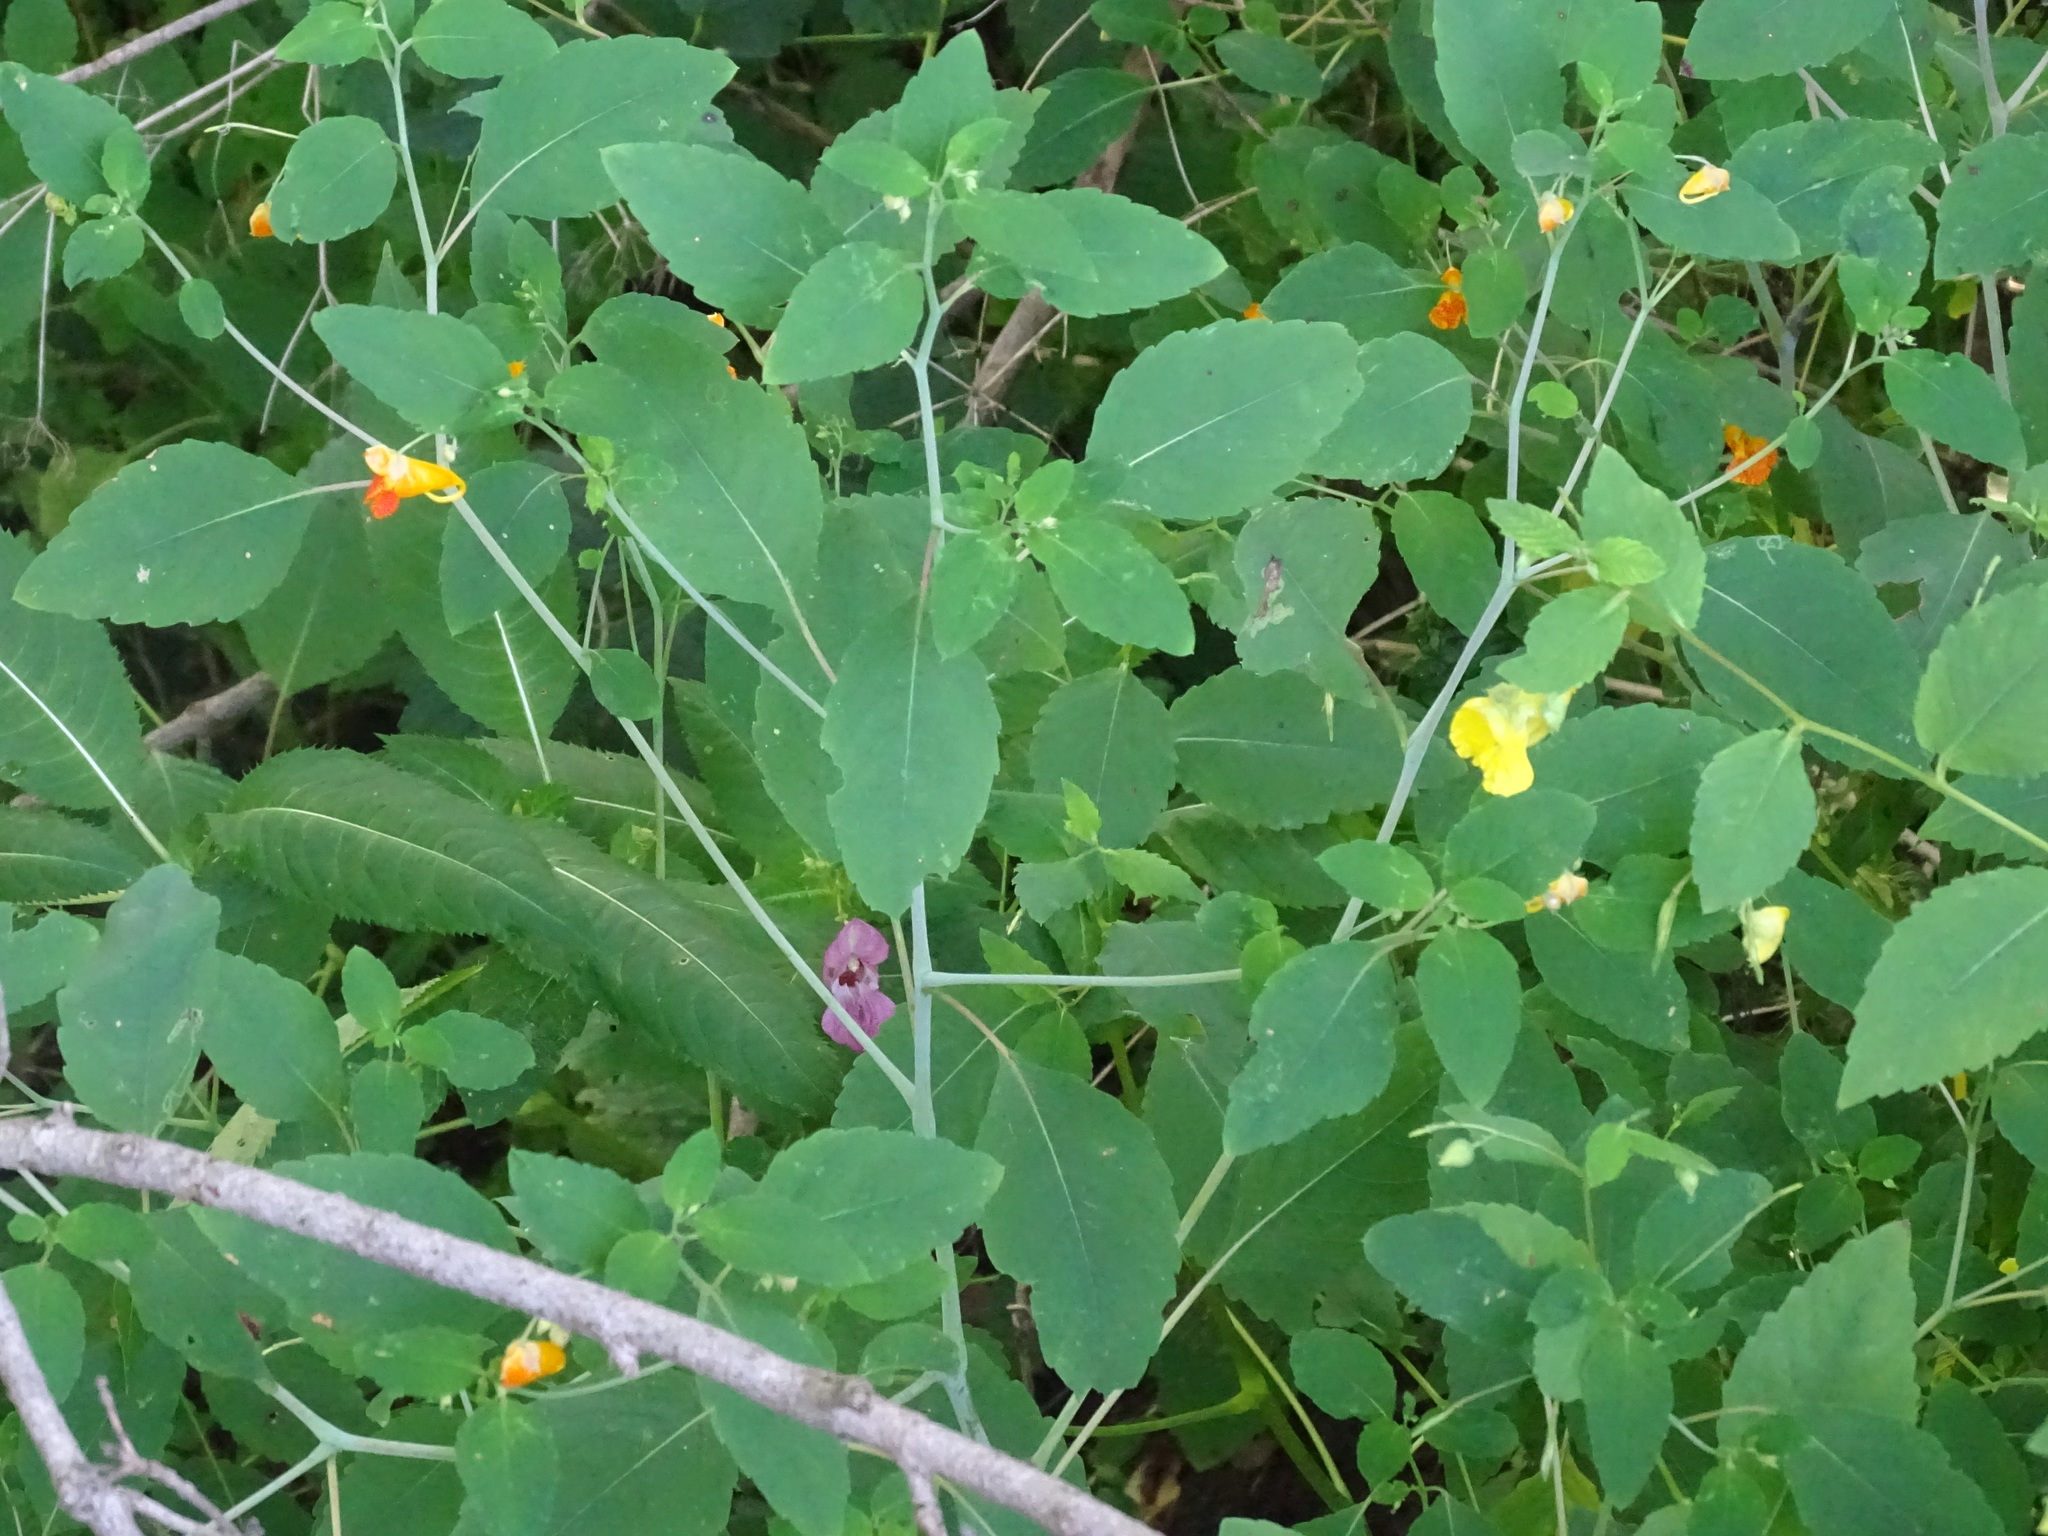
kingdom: Plantae
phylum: Tracheophyta
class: Magnoliopsida
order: Ericales
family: Balsaminaceae
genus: Impatiens
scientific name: Impatiens capensis
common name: Orange balsam
